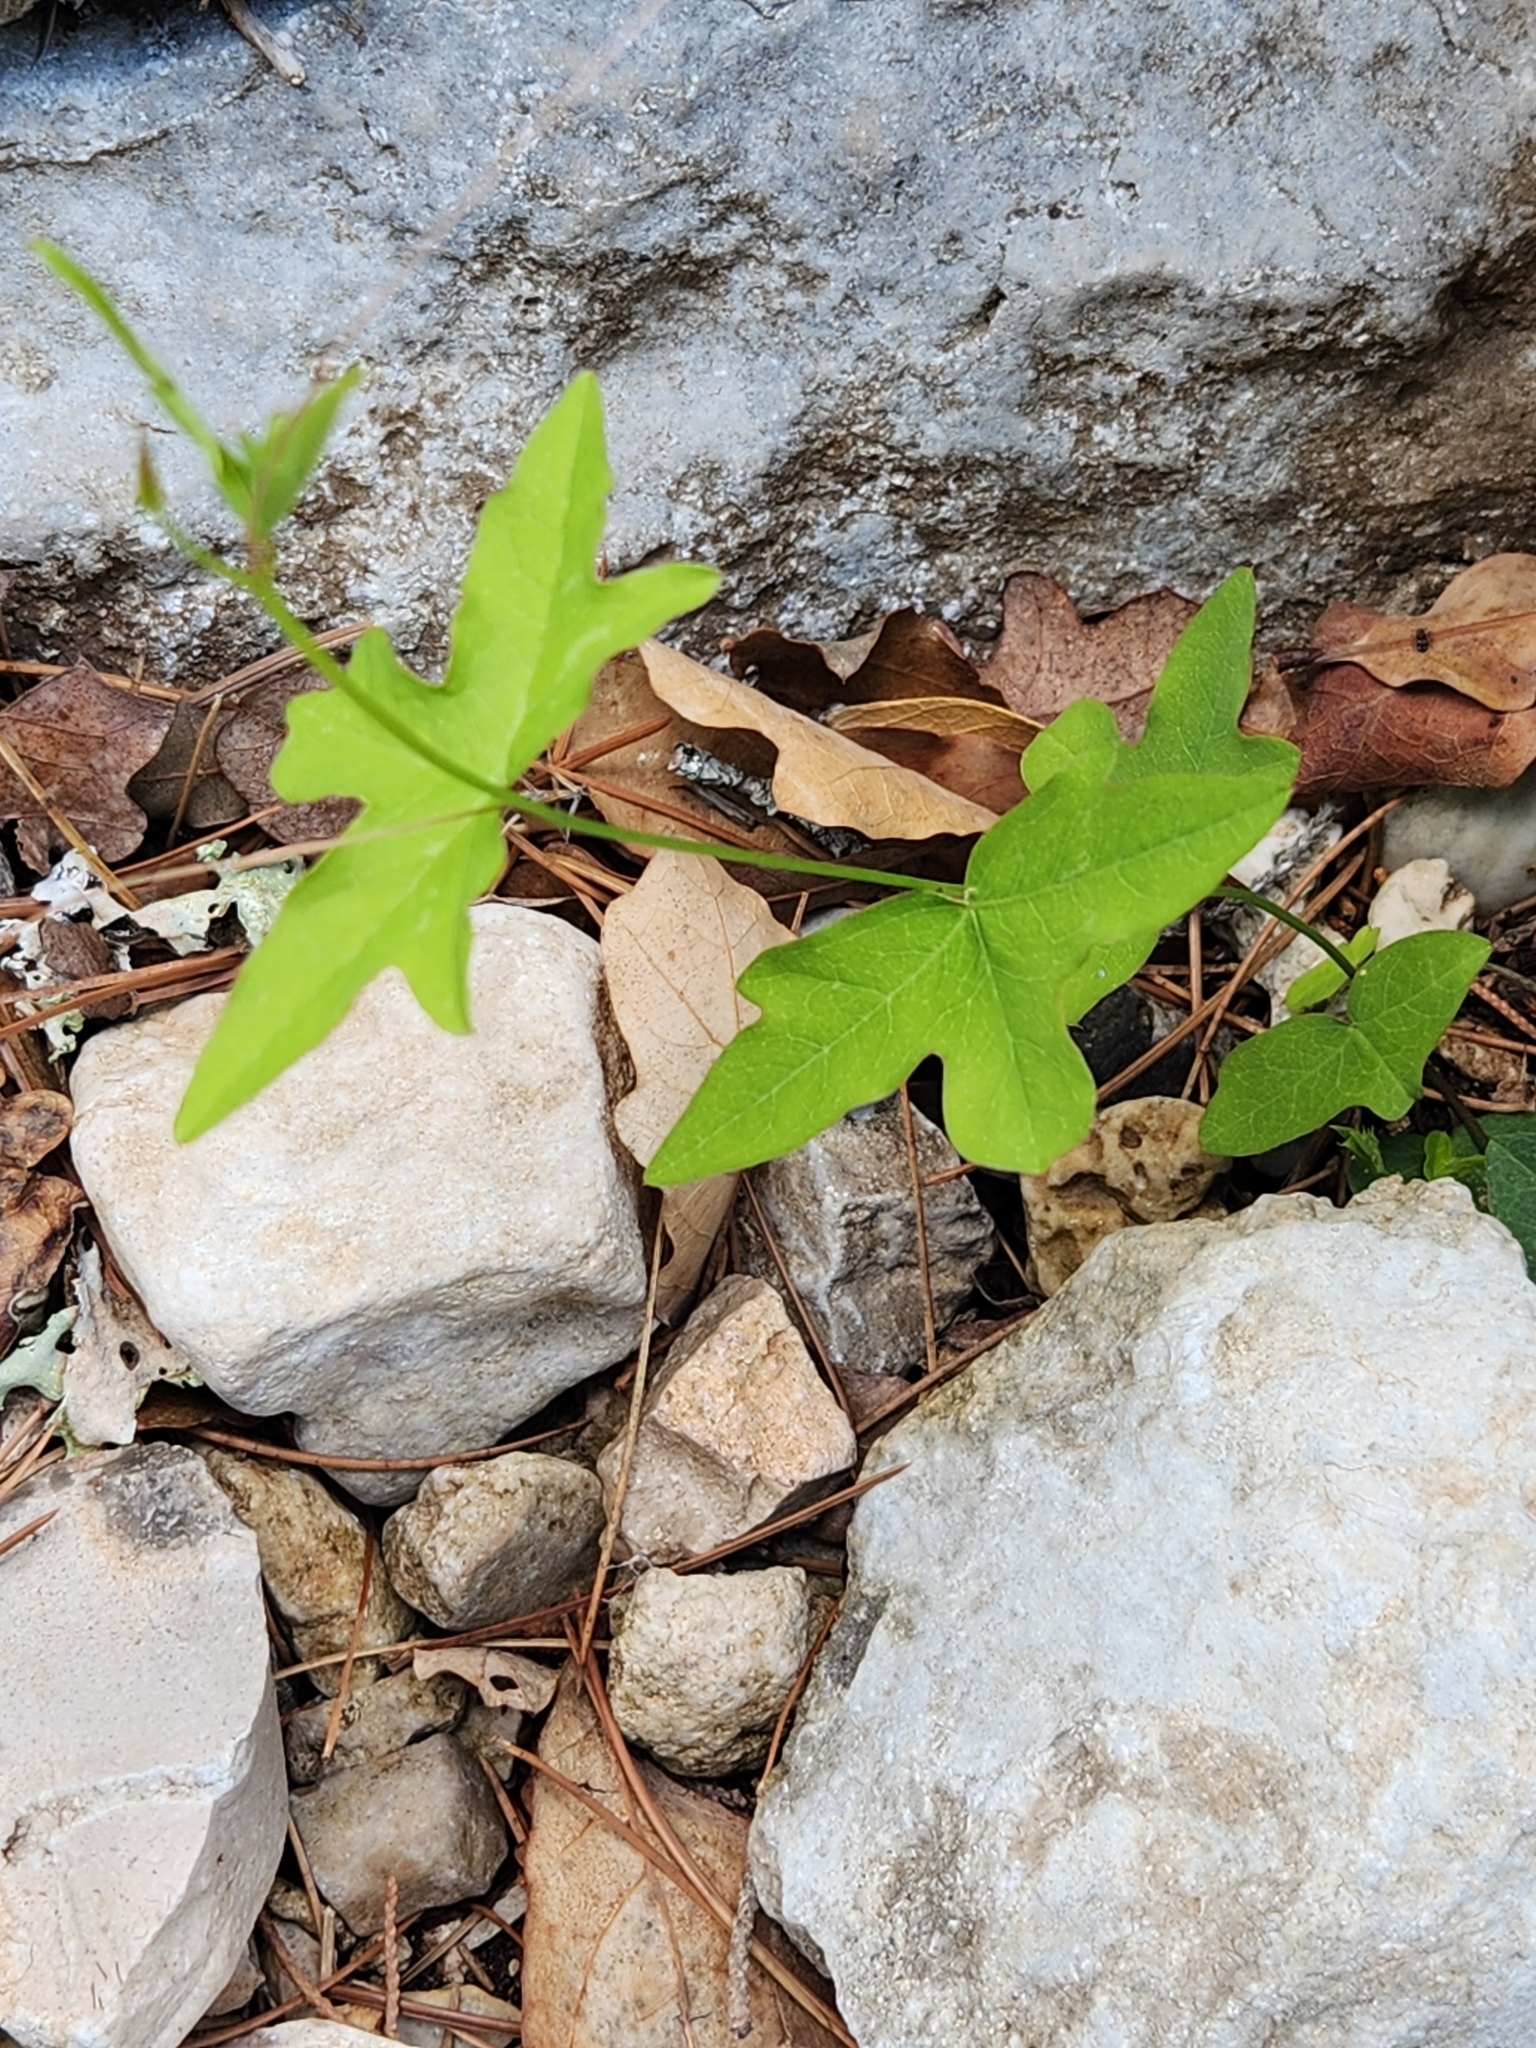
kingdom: Plantae
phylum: Tracheophyta
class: Magnoliopsida
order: Malpighiales
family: Passifloraceae
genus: Passiflora
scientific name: Passiflora tenuiloba
